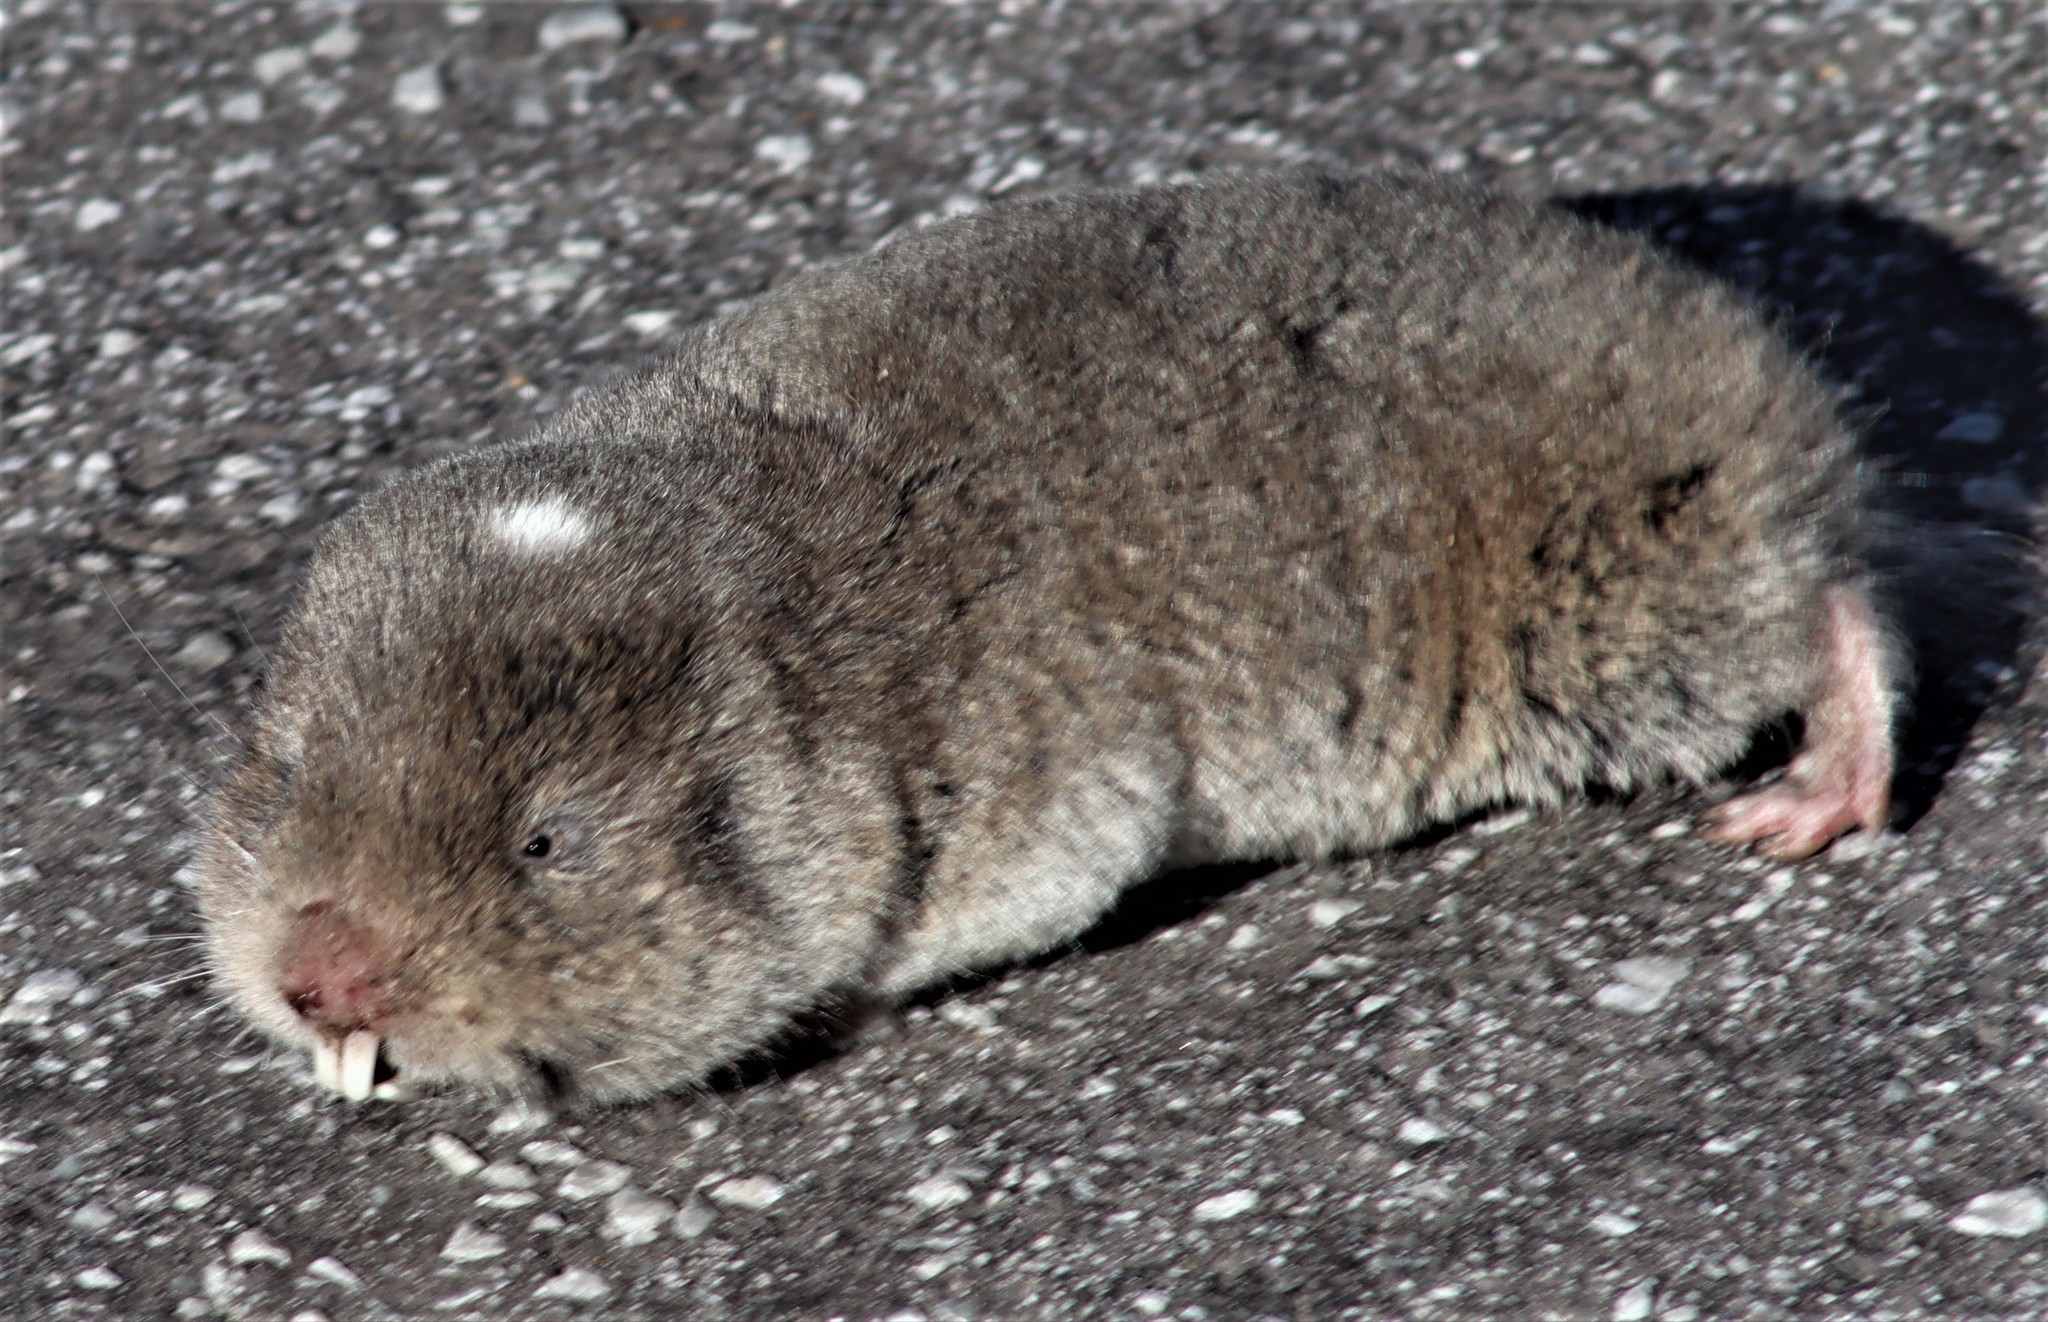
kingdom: Animalia
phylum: Chordata
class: Mammalia
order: Rodentia
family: Bathyergidae
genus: Georychus
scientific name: Georychus capensis
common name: Cape mole-rat
